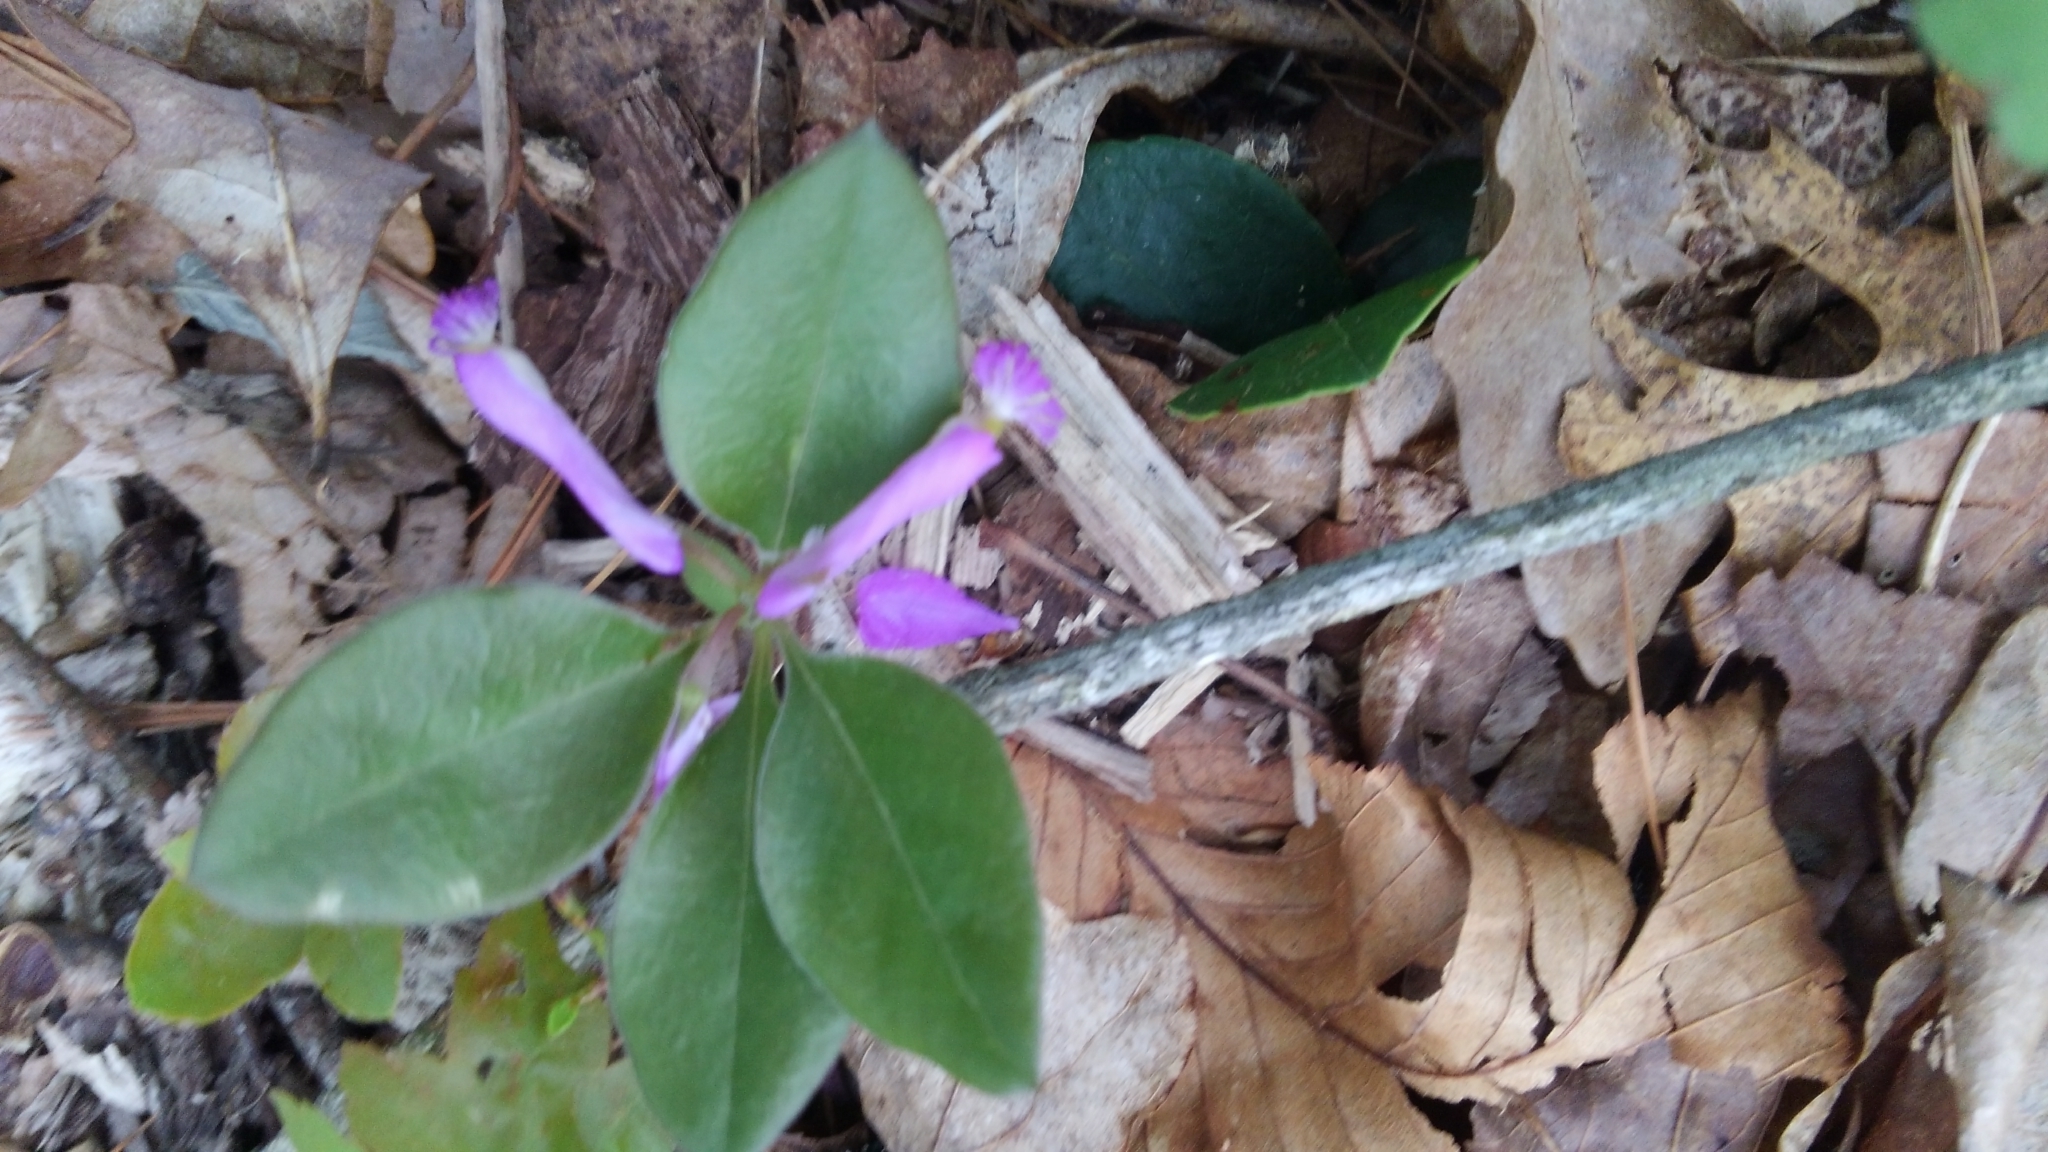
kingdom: Plantae
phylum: Tracheophyta
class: Magnoliopsida
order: Fabales
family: Polygalaceae
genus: Polygaloides
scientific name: Polygaloides paucifolia
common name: Bird-on-the-wing
